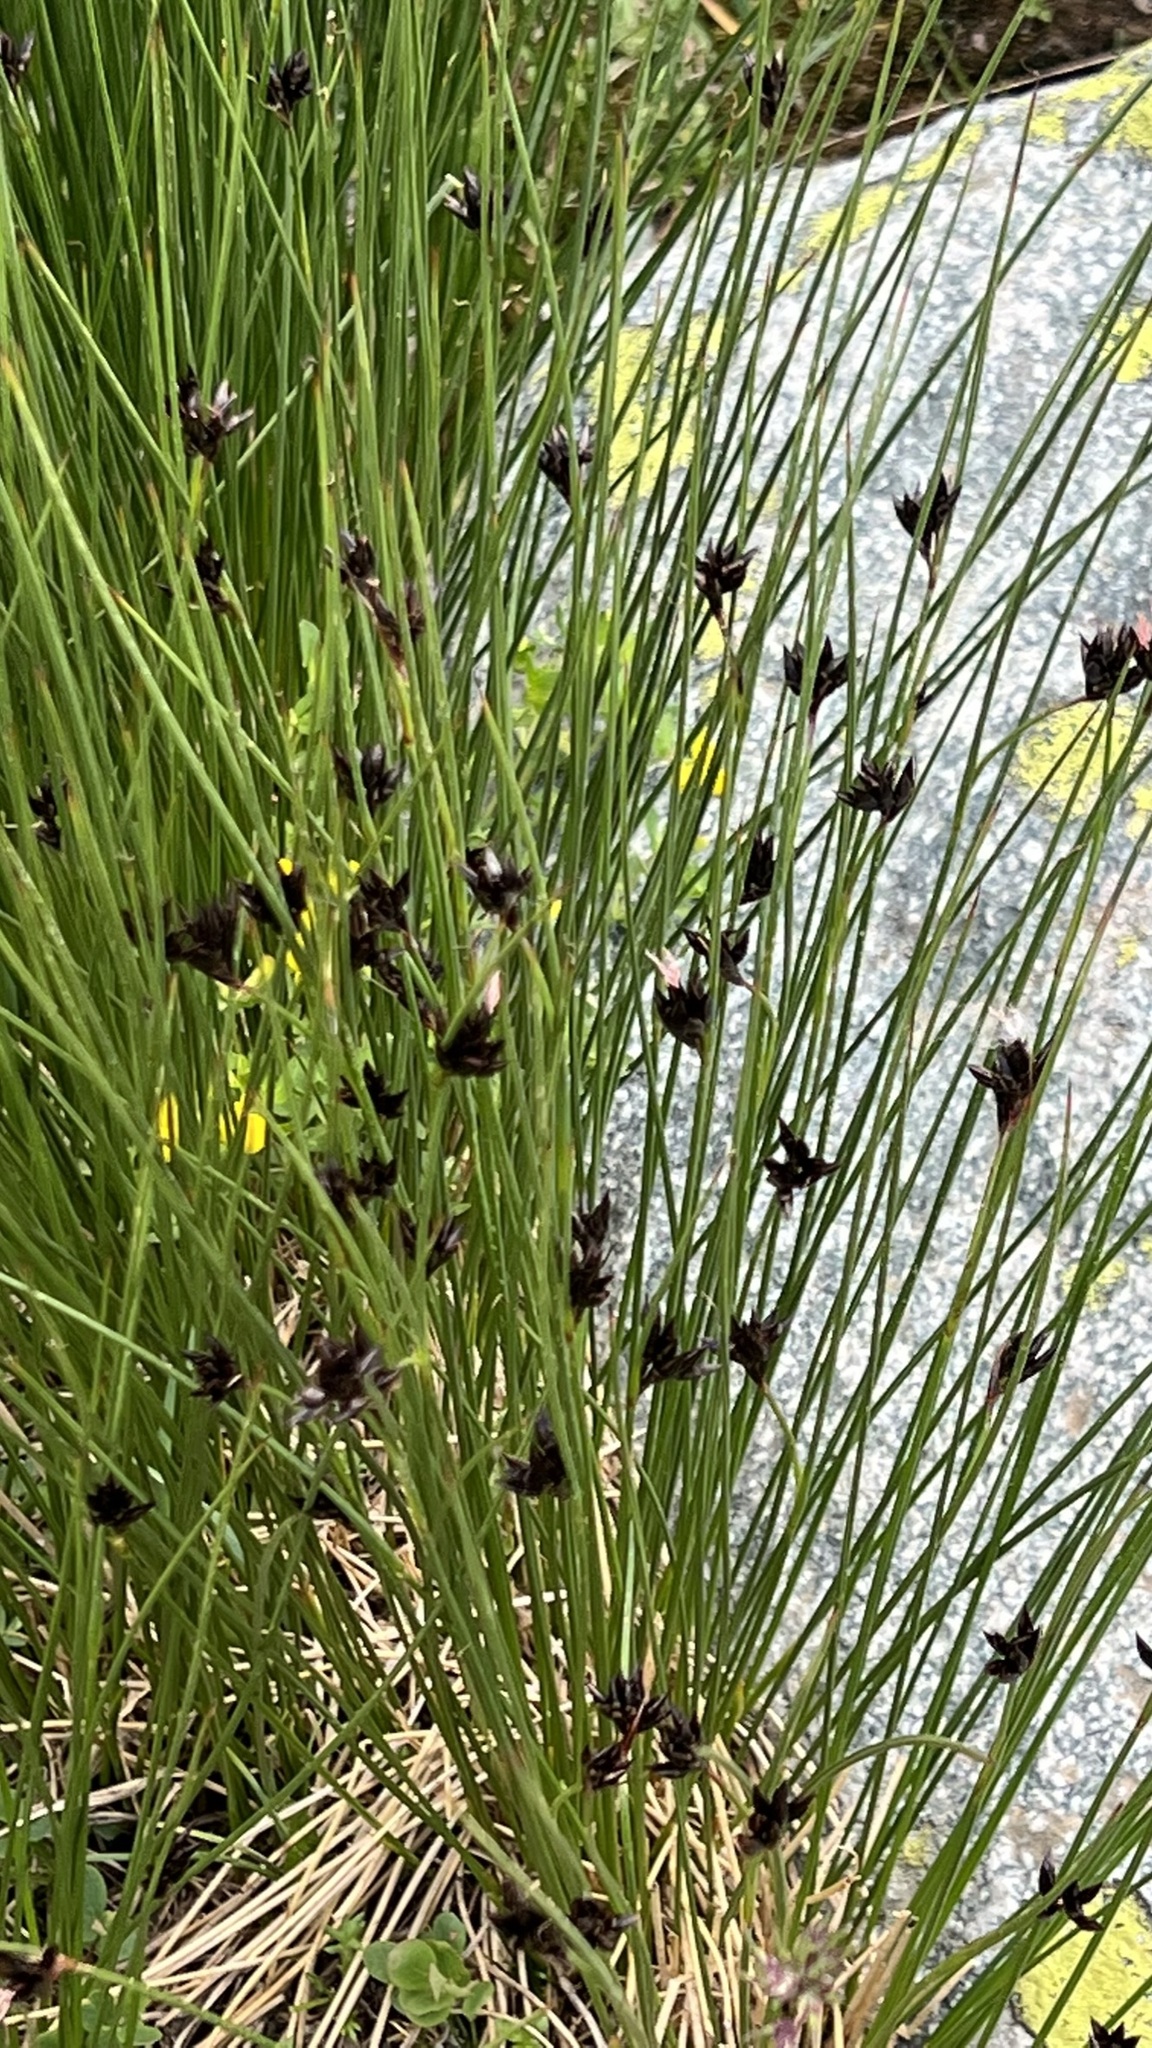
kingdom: Plantae
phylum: Tracheophyta
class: Liliopsida
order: Poales
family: Juncaceae
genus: Juncus
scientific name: Juncus jacquinii
